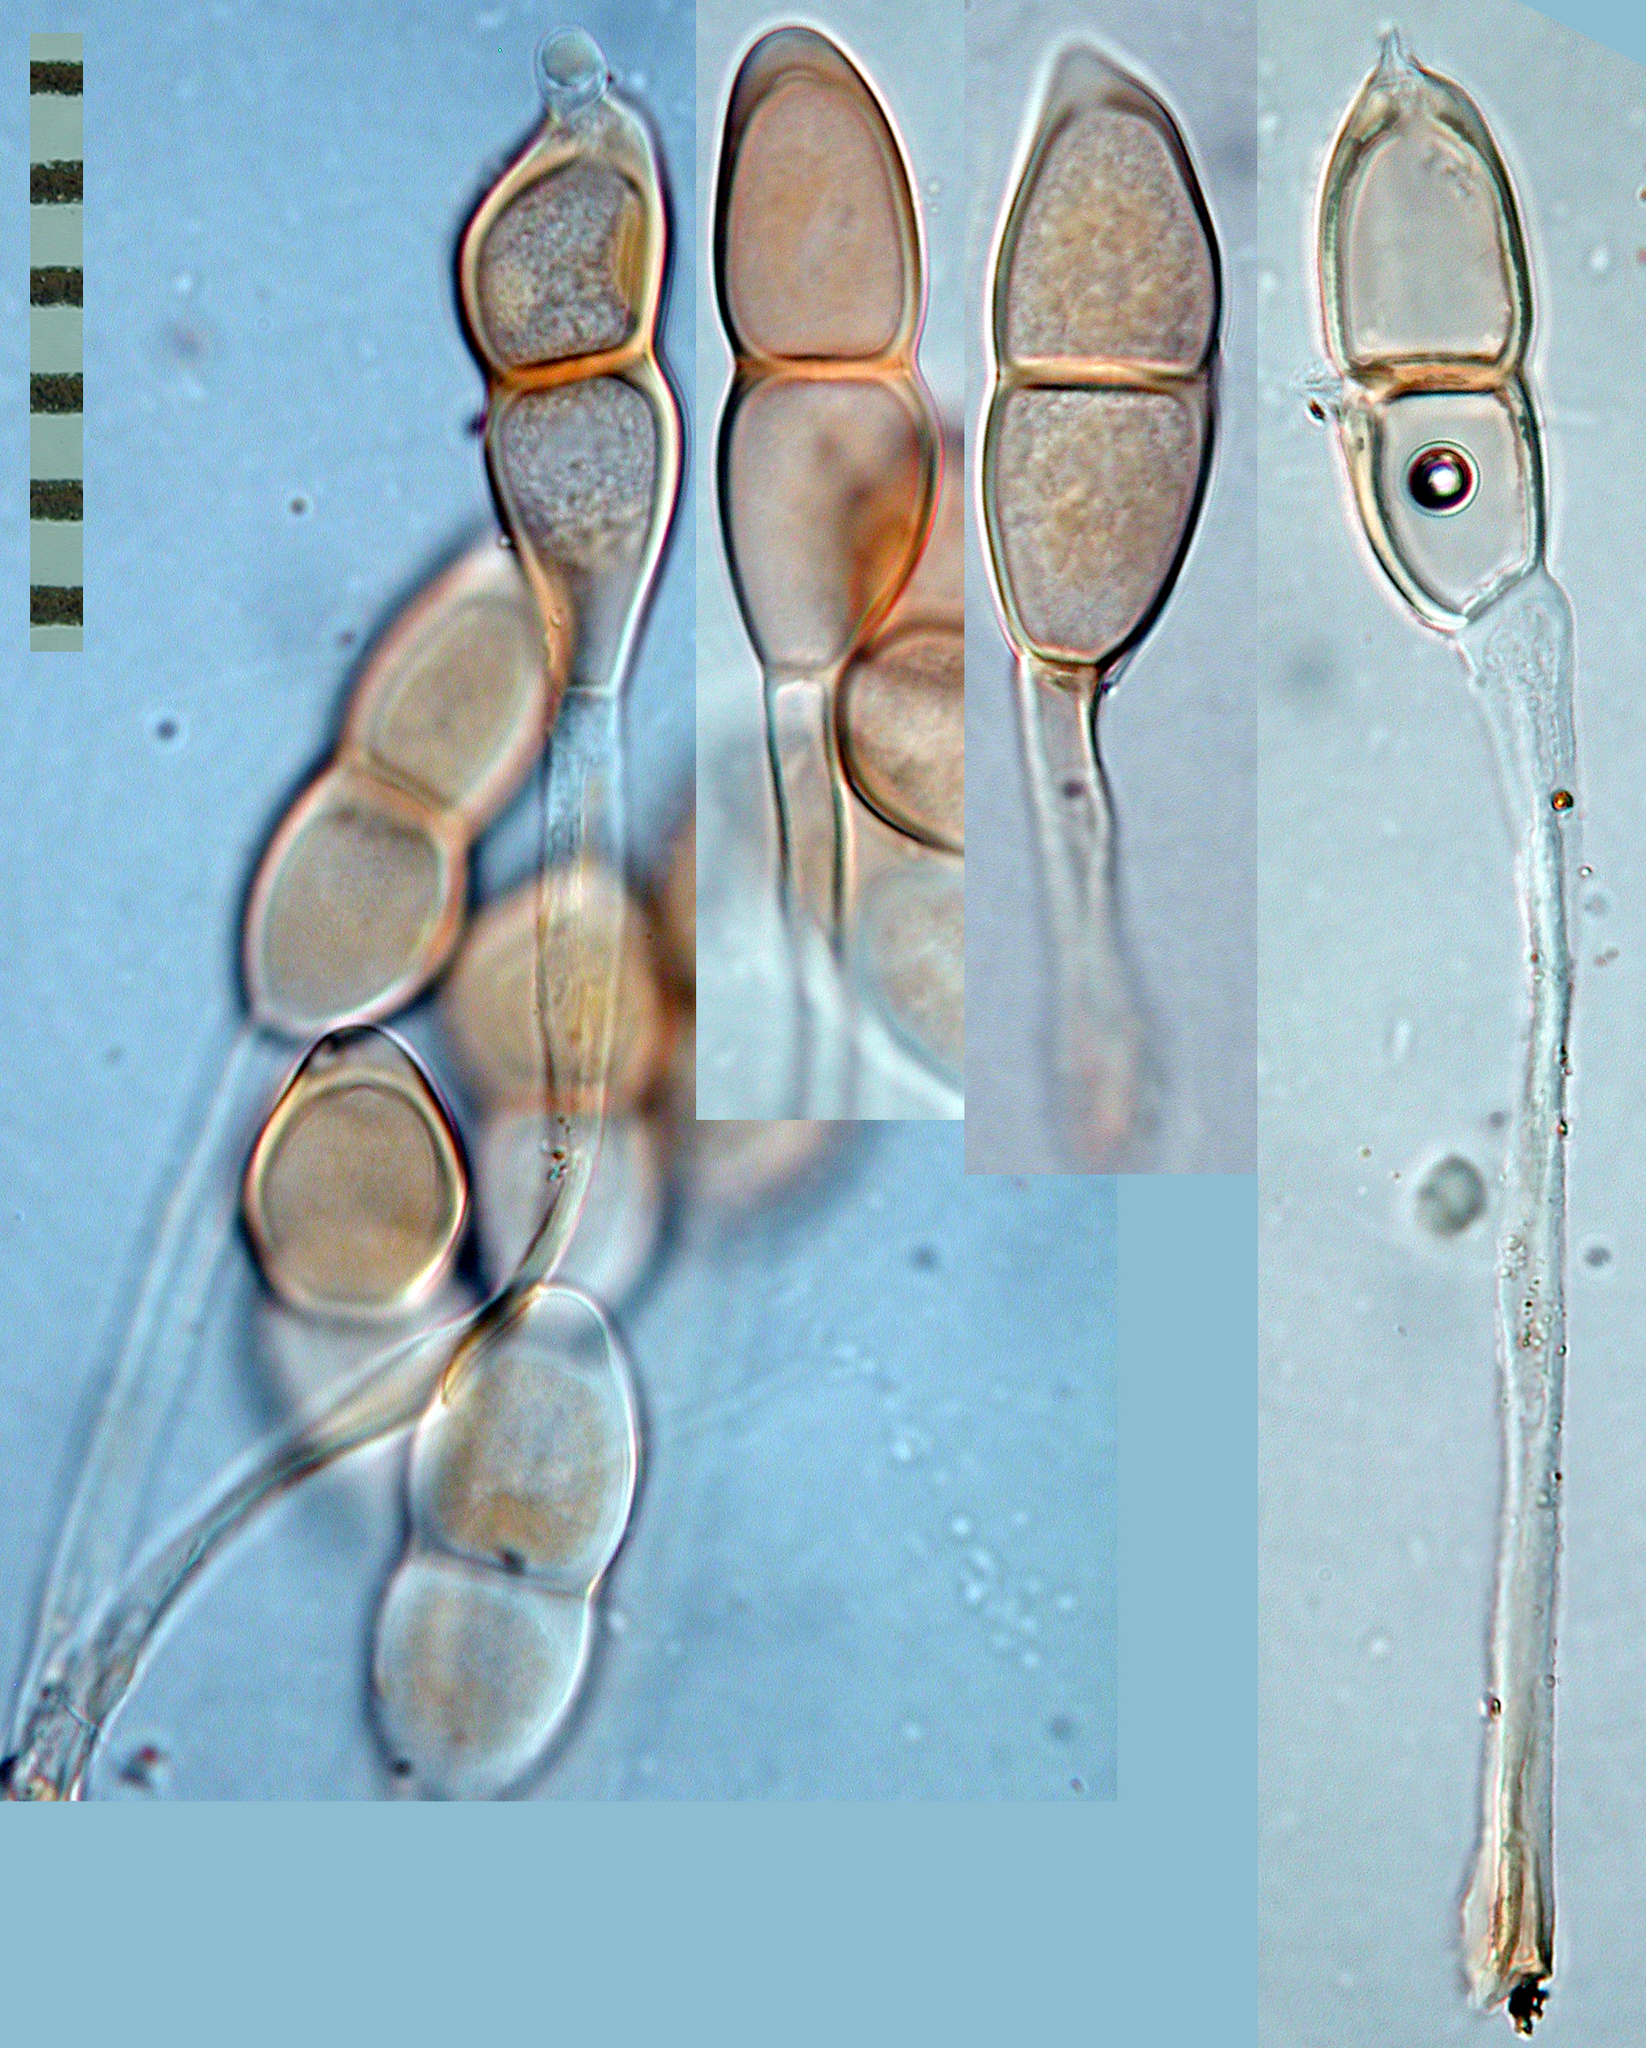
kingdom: Fungi
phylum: Basidiomycota
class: Pucciniomycetes
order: Pucciniales
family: Pucciniaceae
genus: Puccinia
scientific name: Puccinia coprosmae
